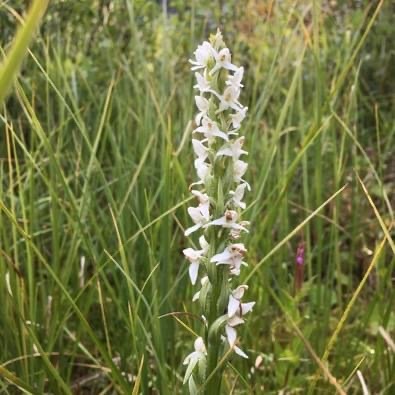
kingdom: Plantae
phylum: Tracheophyta
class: Liliopsida
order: Asparagales
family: Orchidaceae
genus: Platanthera
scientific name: Platanthera dilatata
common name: Bog candles
